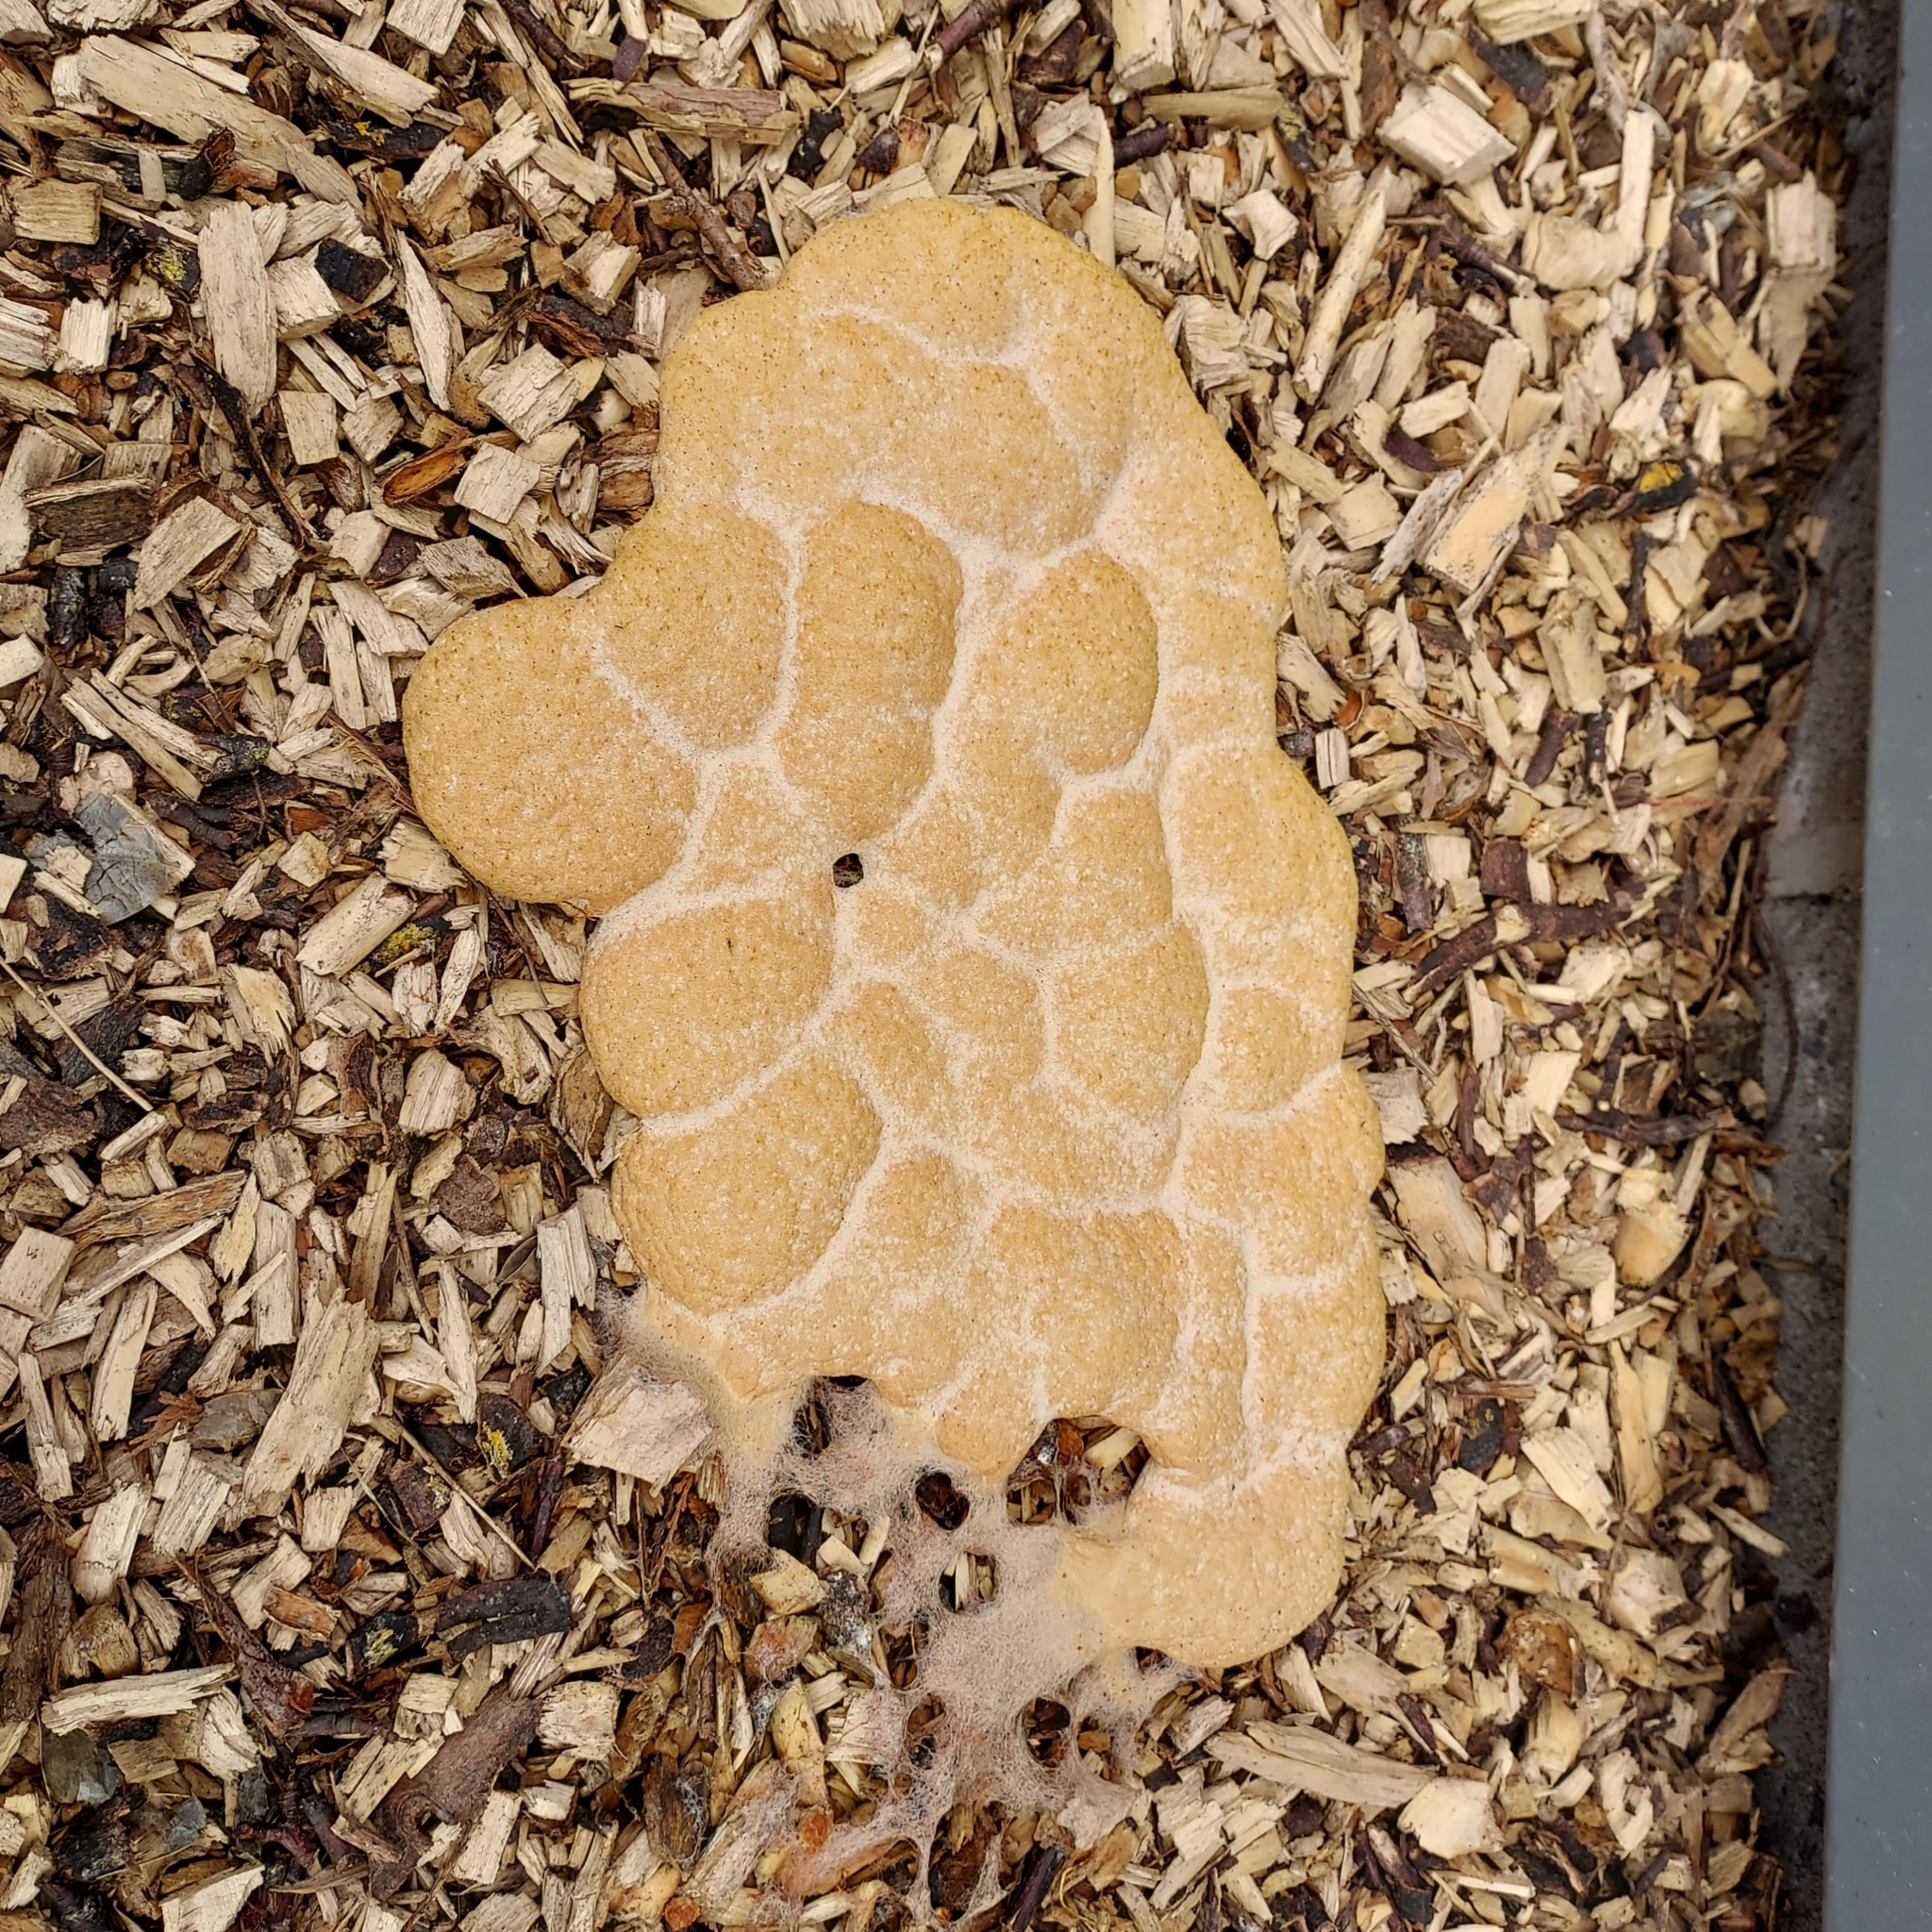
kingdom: Protozoa
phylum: Mycetozoa
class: Myxomycetes
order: Physarales
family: Physaraceae
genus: Fuligo
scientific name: Fuligo septica
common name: Dog vomit slime mold
